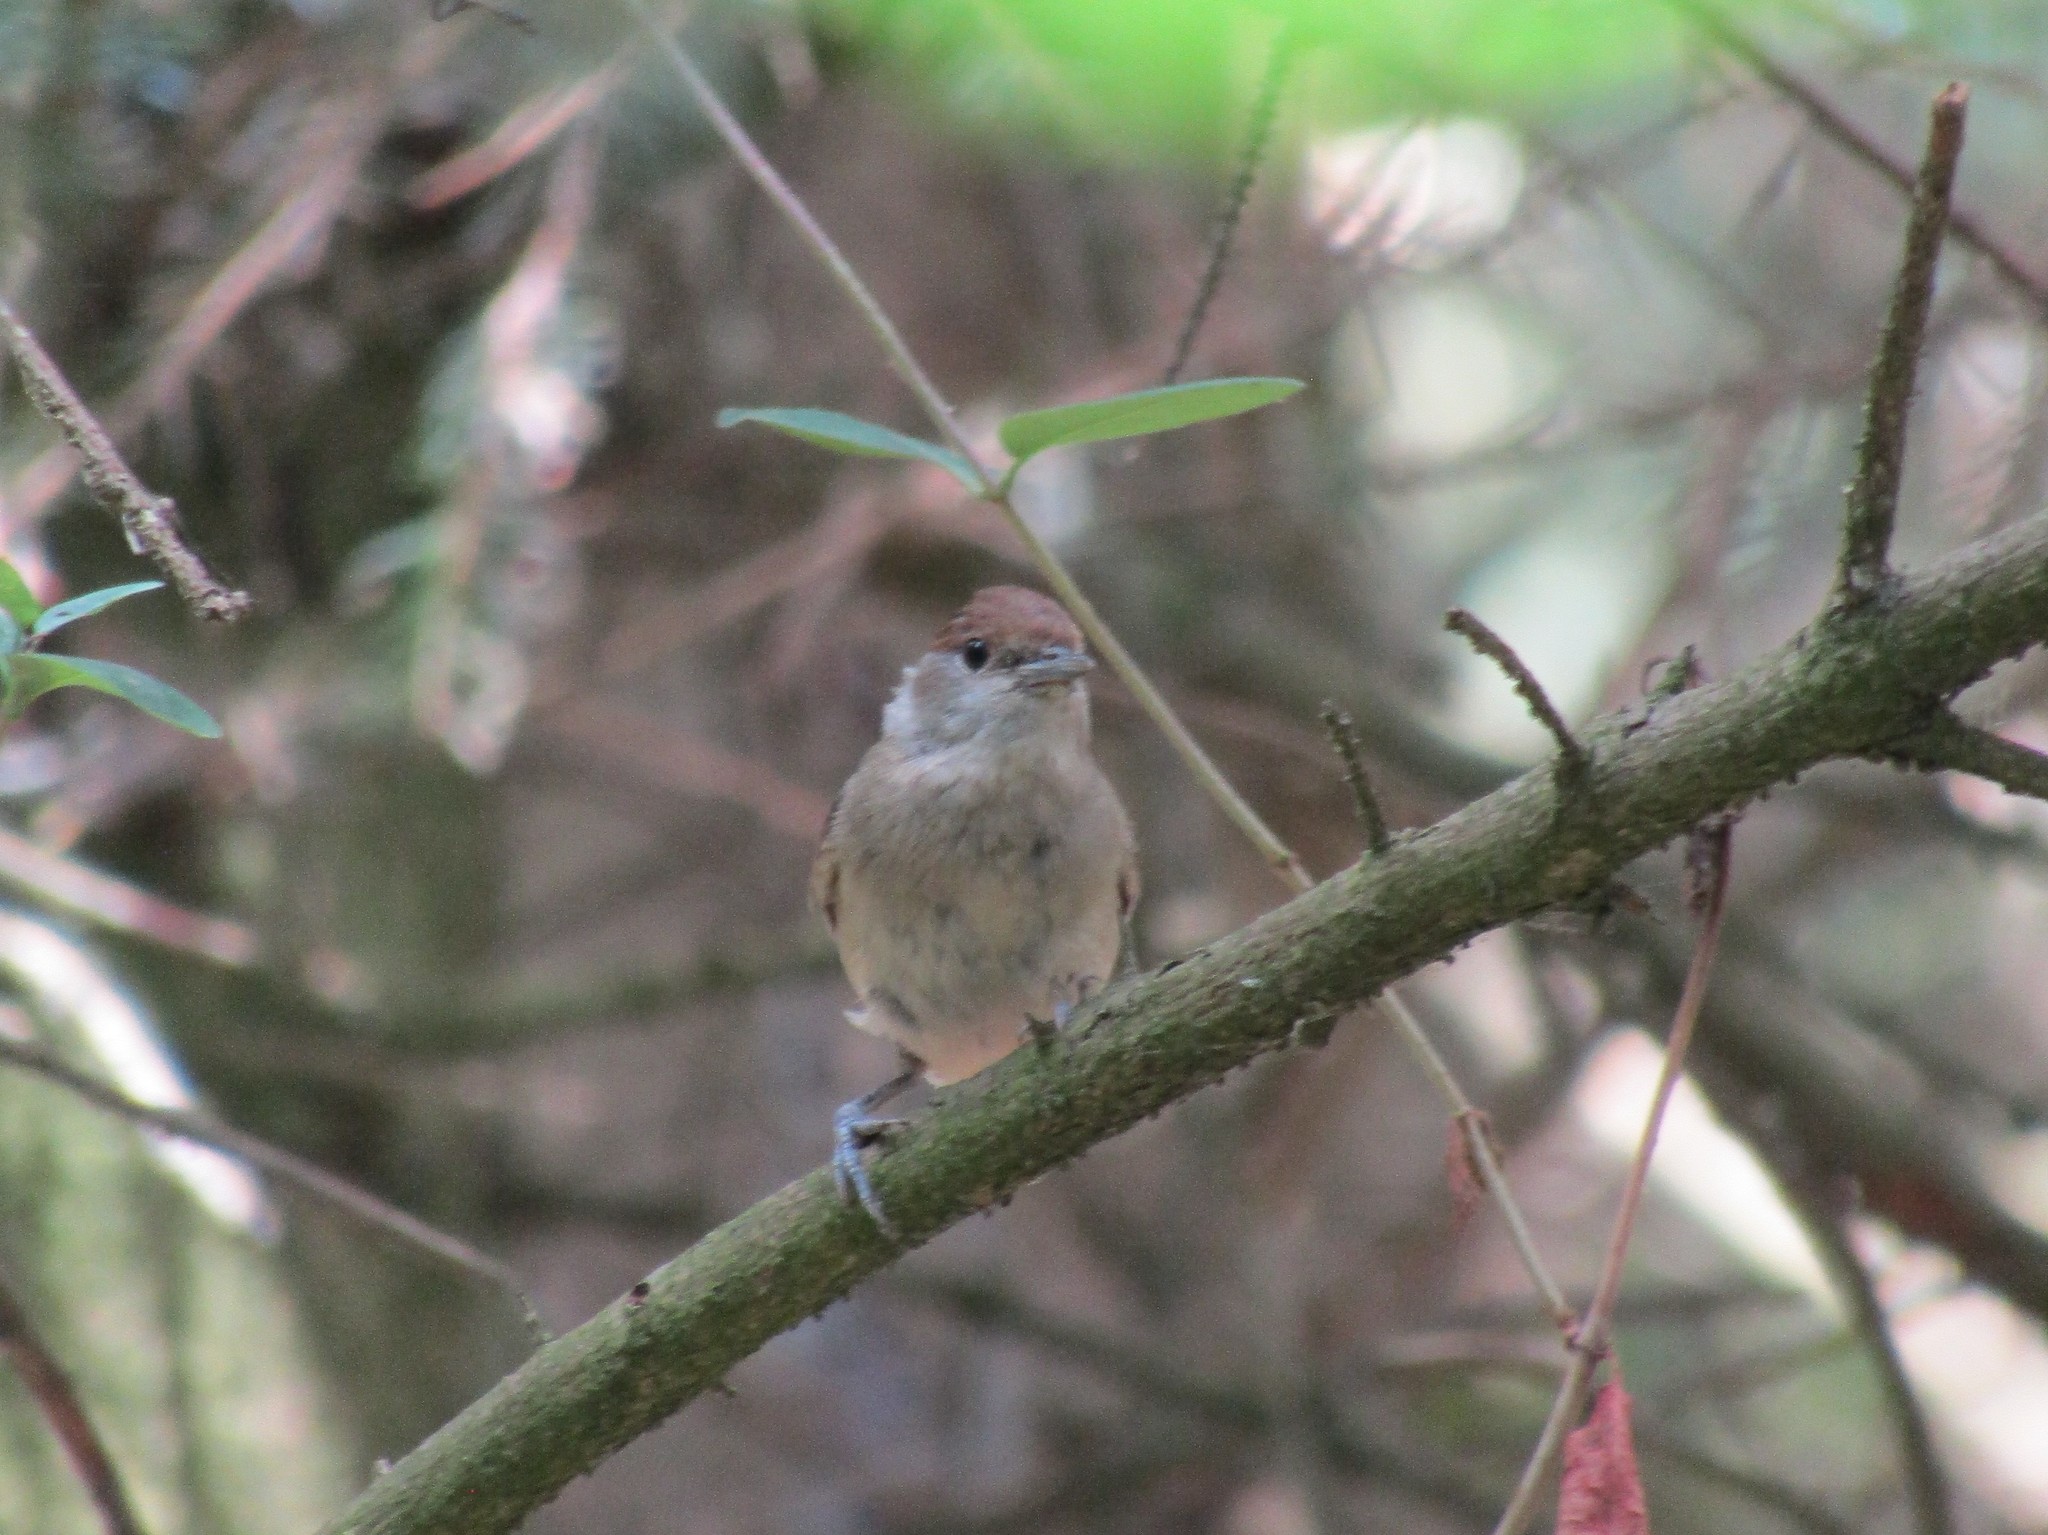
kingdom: Animalia
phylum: Chordata
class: Aves
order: Passeriformes
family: Sylviidae
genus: Sylvia
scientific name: Sylvia atricapilla
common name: Eurasian blackcap
